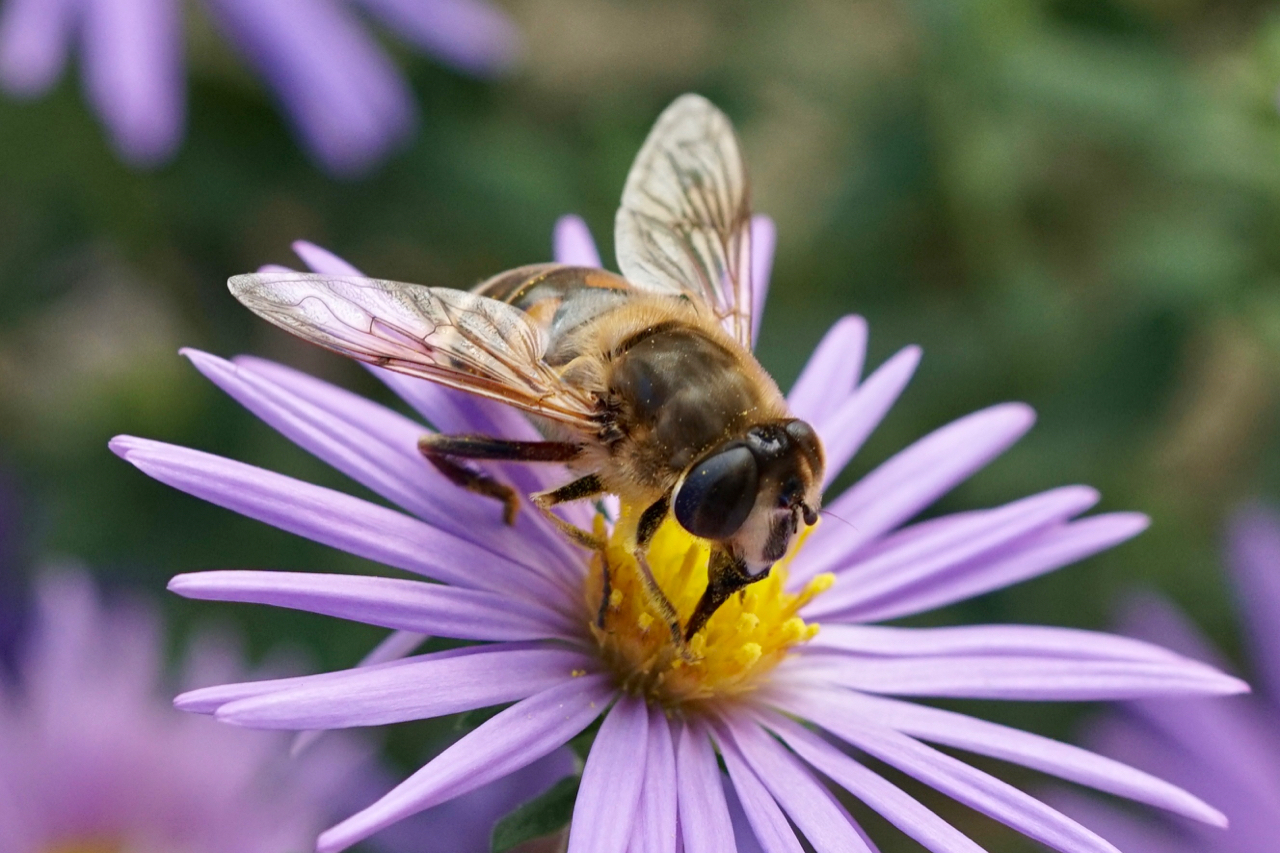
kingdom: Animalia
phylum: Arthropoda
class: Insecta
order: Diptera
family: Syrphidae
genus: Eristalis
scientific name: Eristalis tenax
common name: Drone fly
